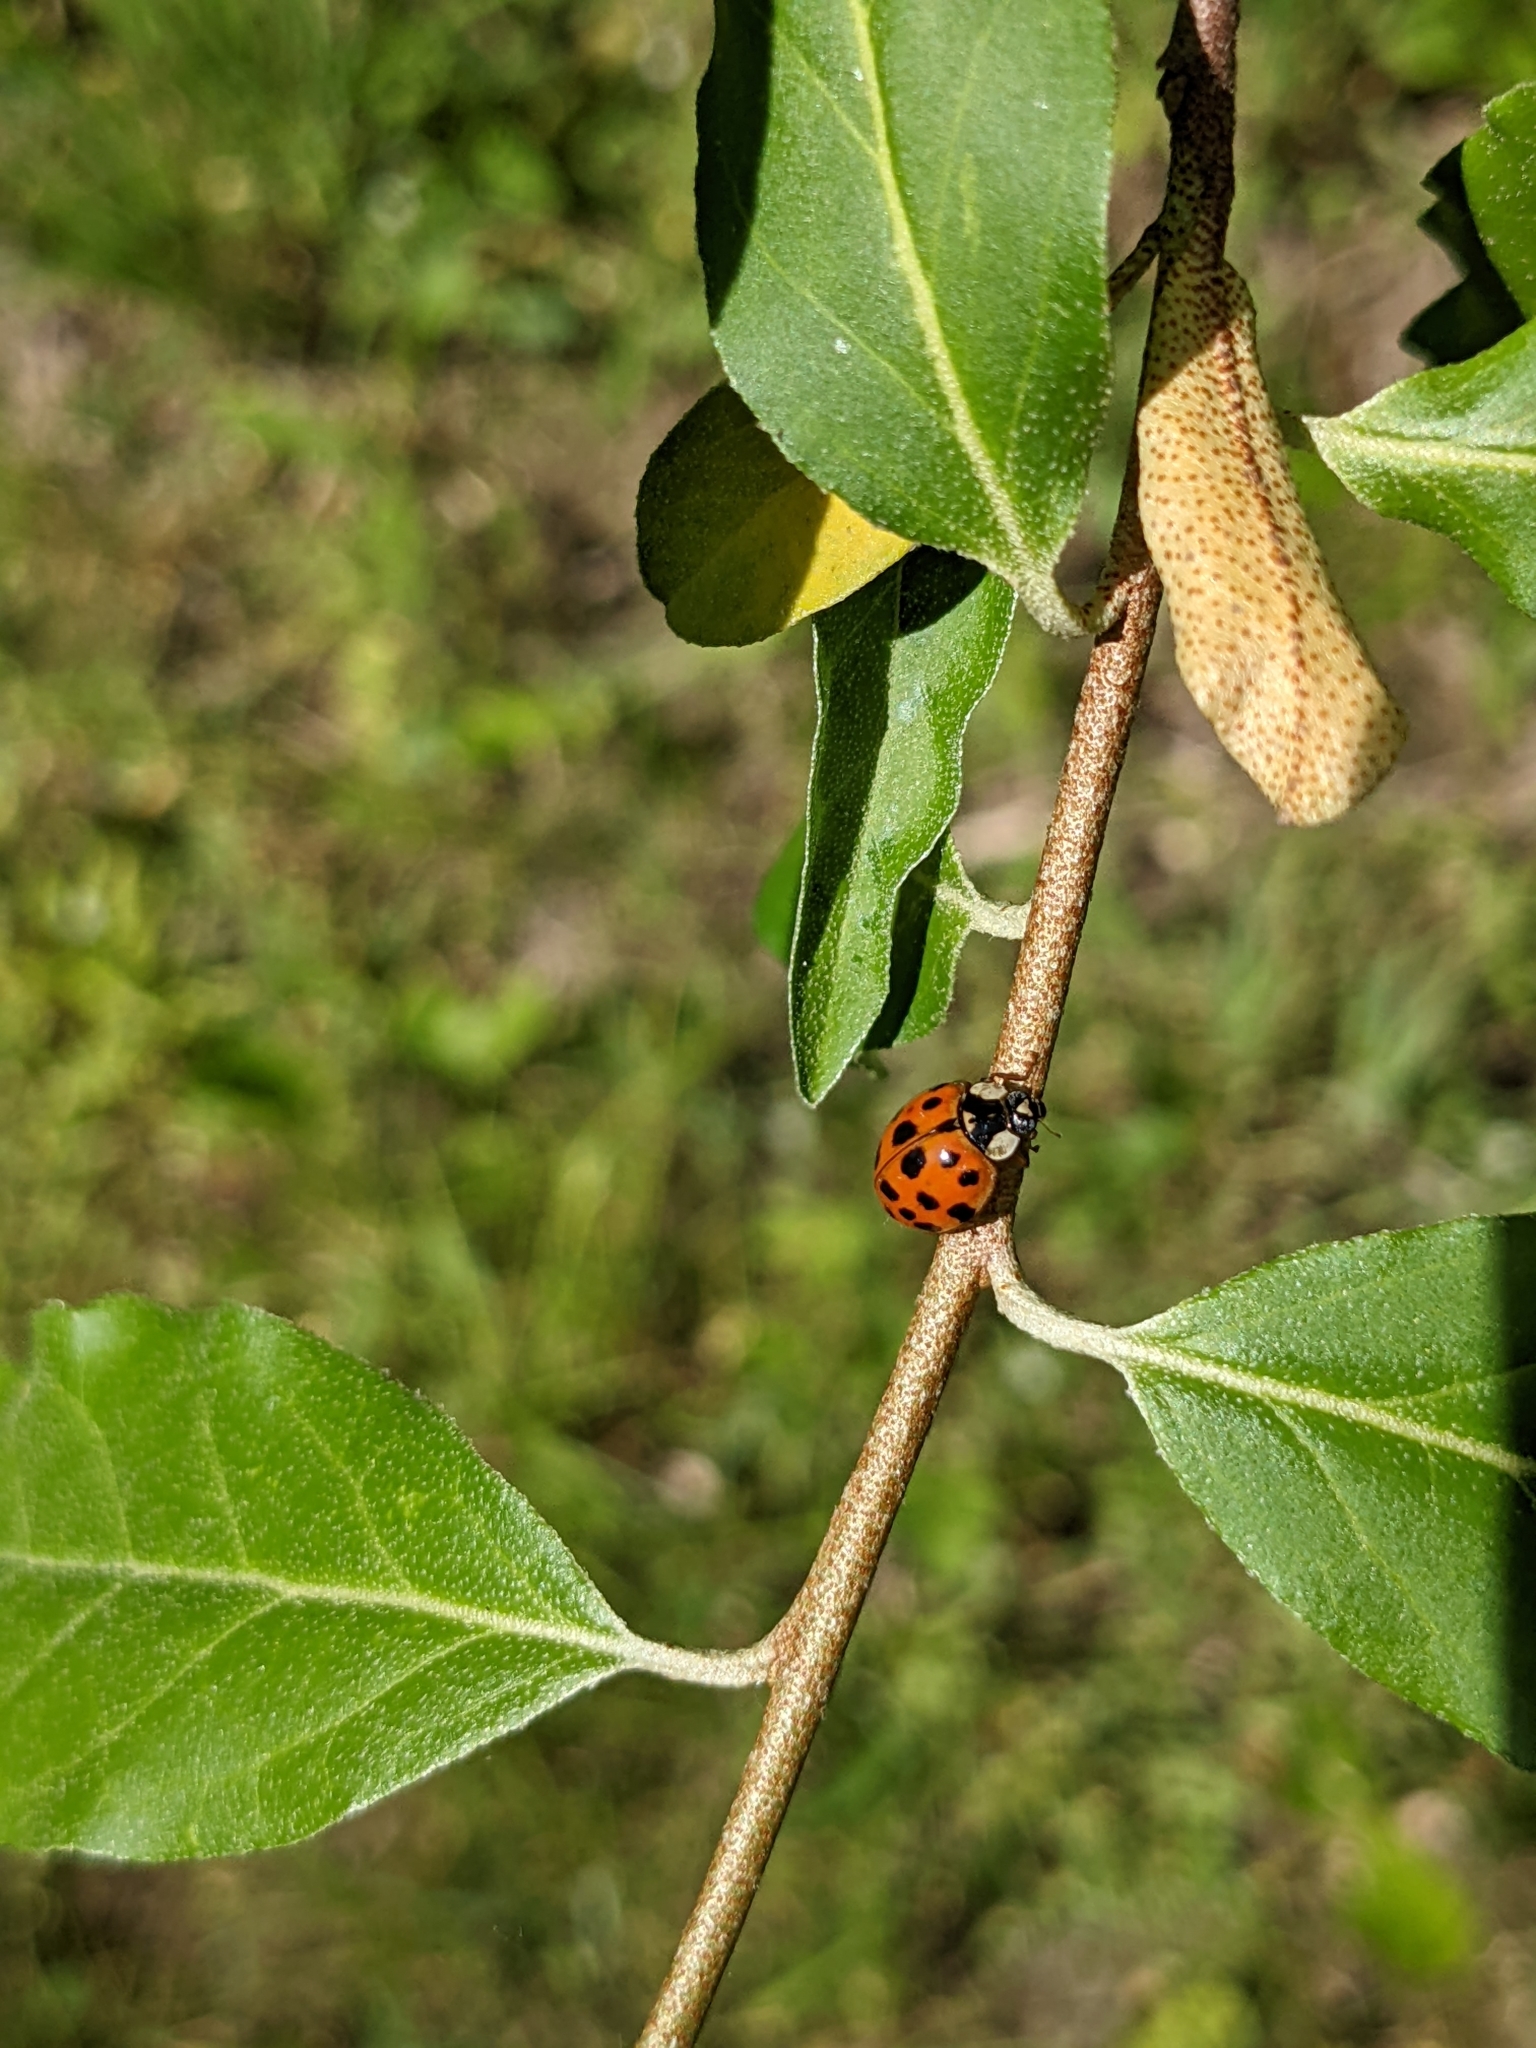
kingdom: Animalia
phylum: Arthropoda
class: Insecta
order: Coleoptera
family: Coccinellidae
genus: Harmonia
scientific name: Harmonia axyridis
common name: Harlequin ladybird
